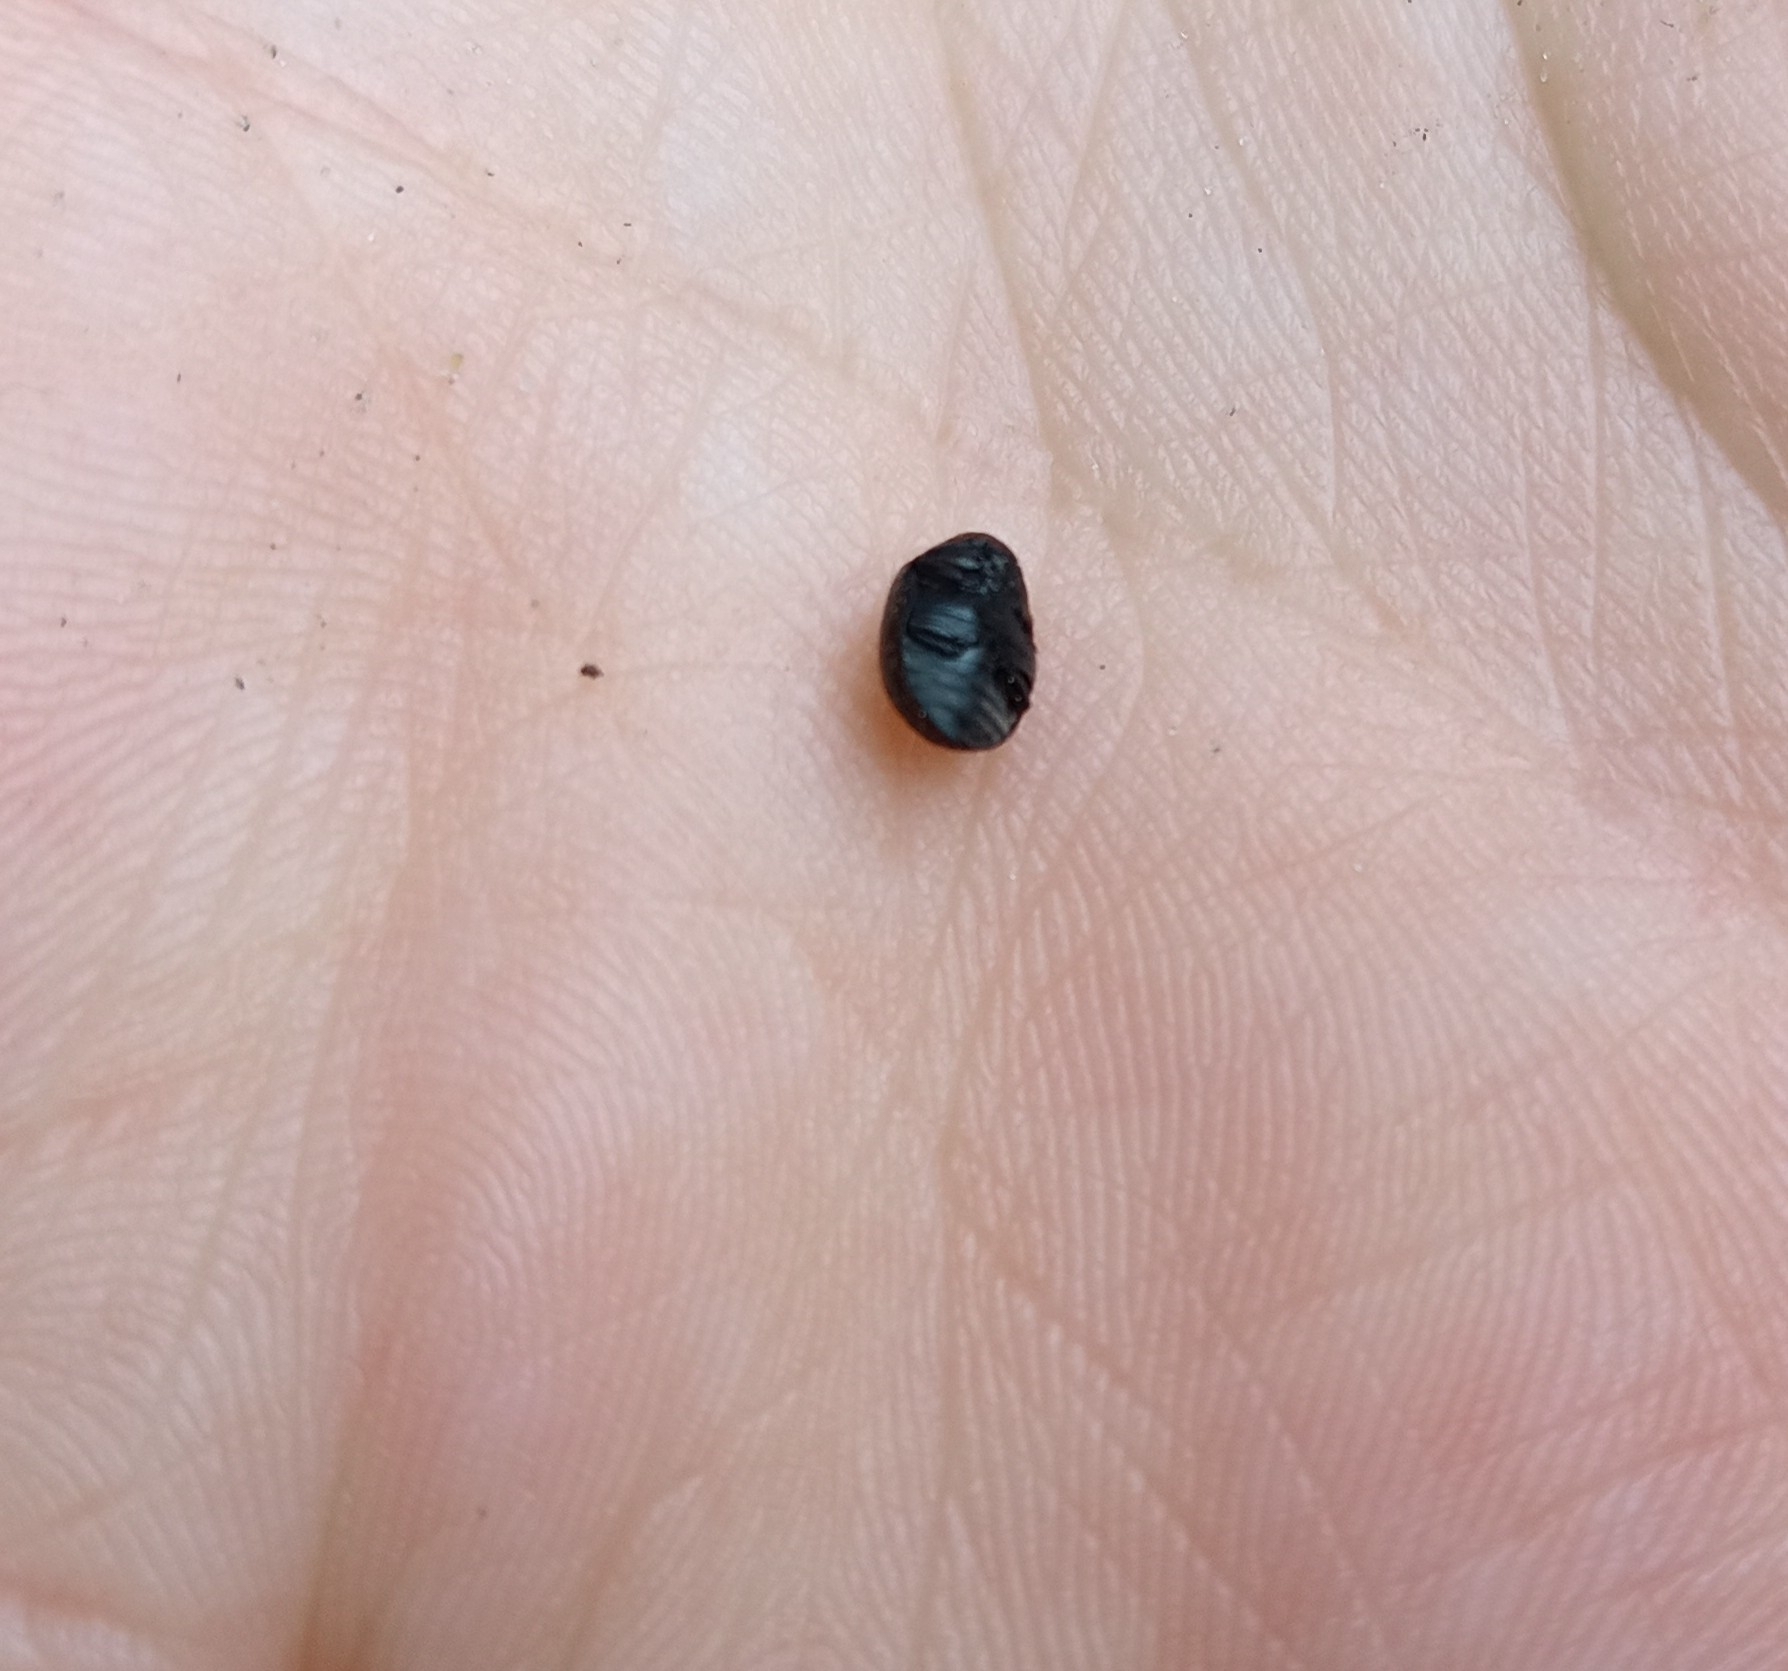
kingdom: Animalia
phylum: Arthropoda
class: Insecta
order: Coleoptera
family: Byrrhidae
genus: Cytilus
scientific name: Cytilus sericeus
